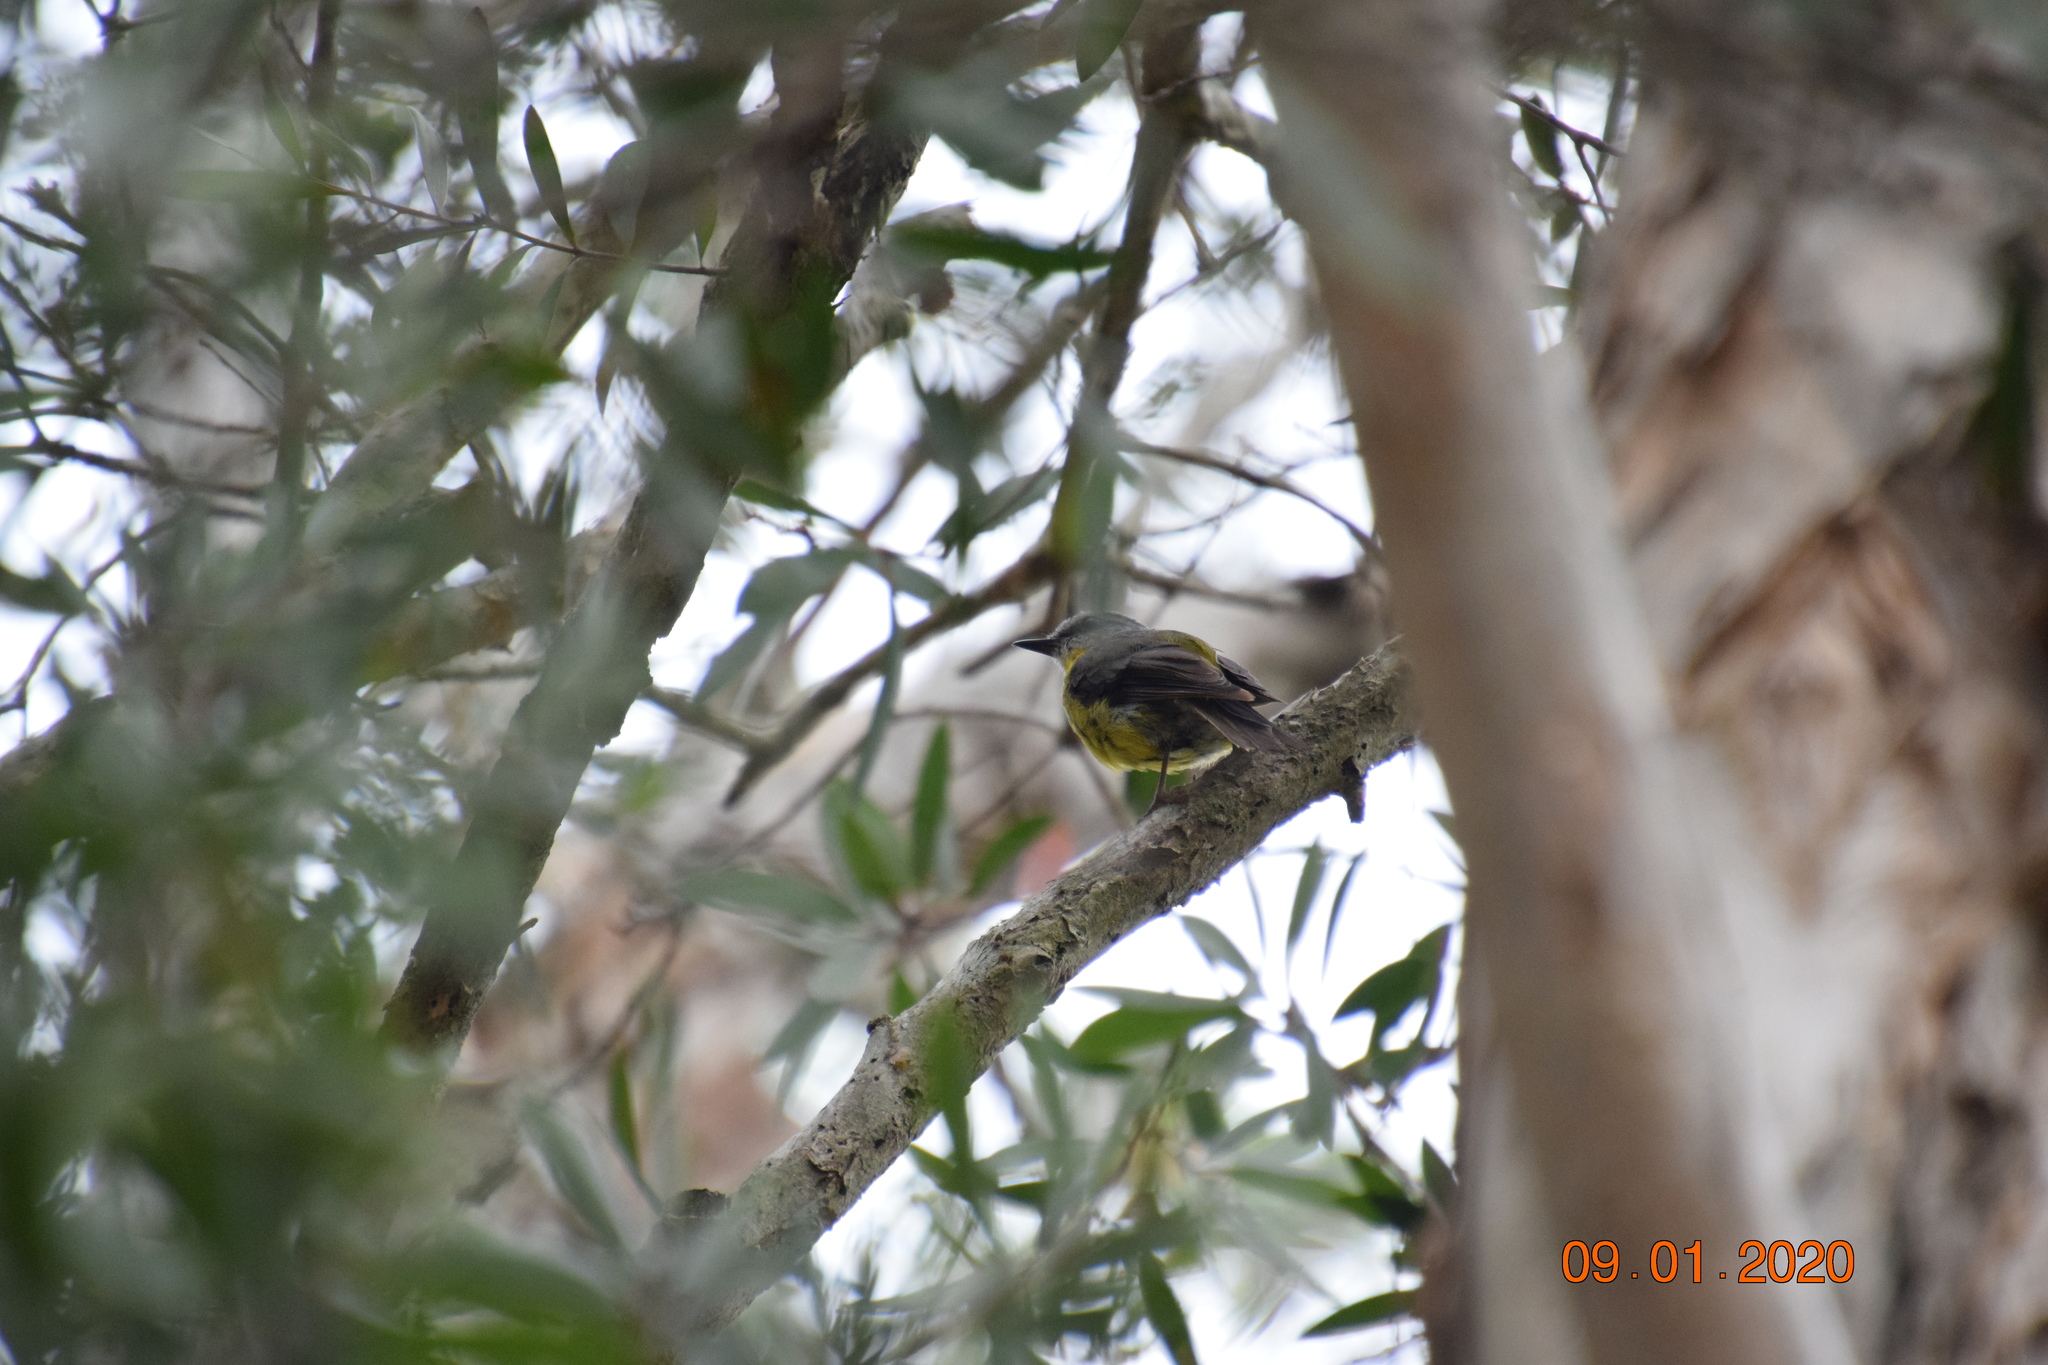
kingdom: Animalia
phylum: Chordata
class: Aves
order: Passeriformes
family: Petroicidae
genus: Eopsaltria
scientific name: Eopsaltria australis
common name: Eastern yellow robin
